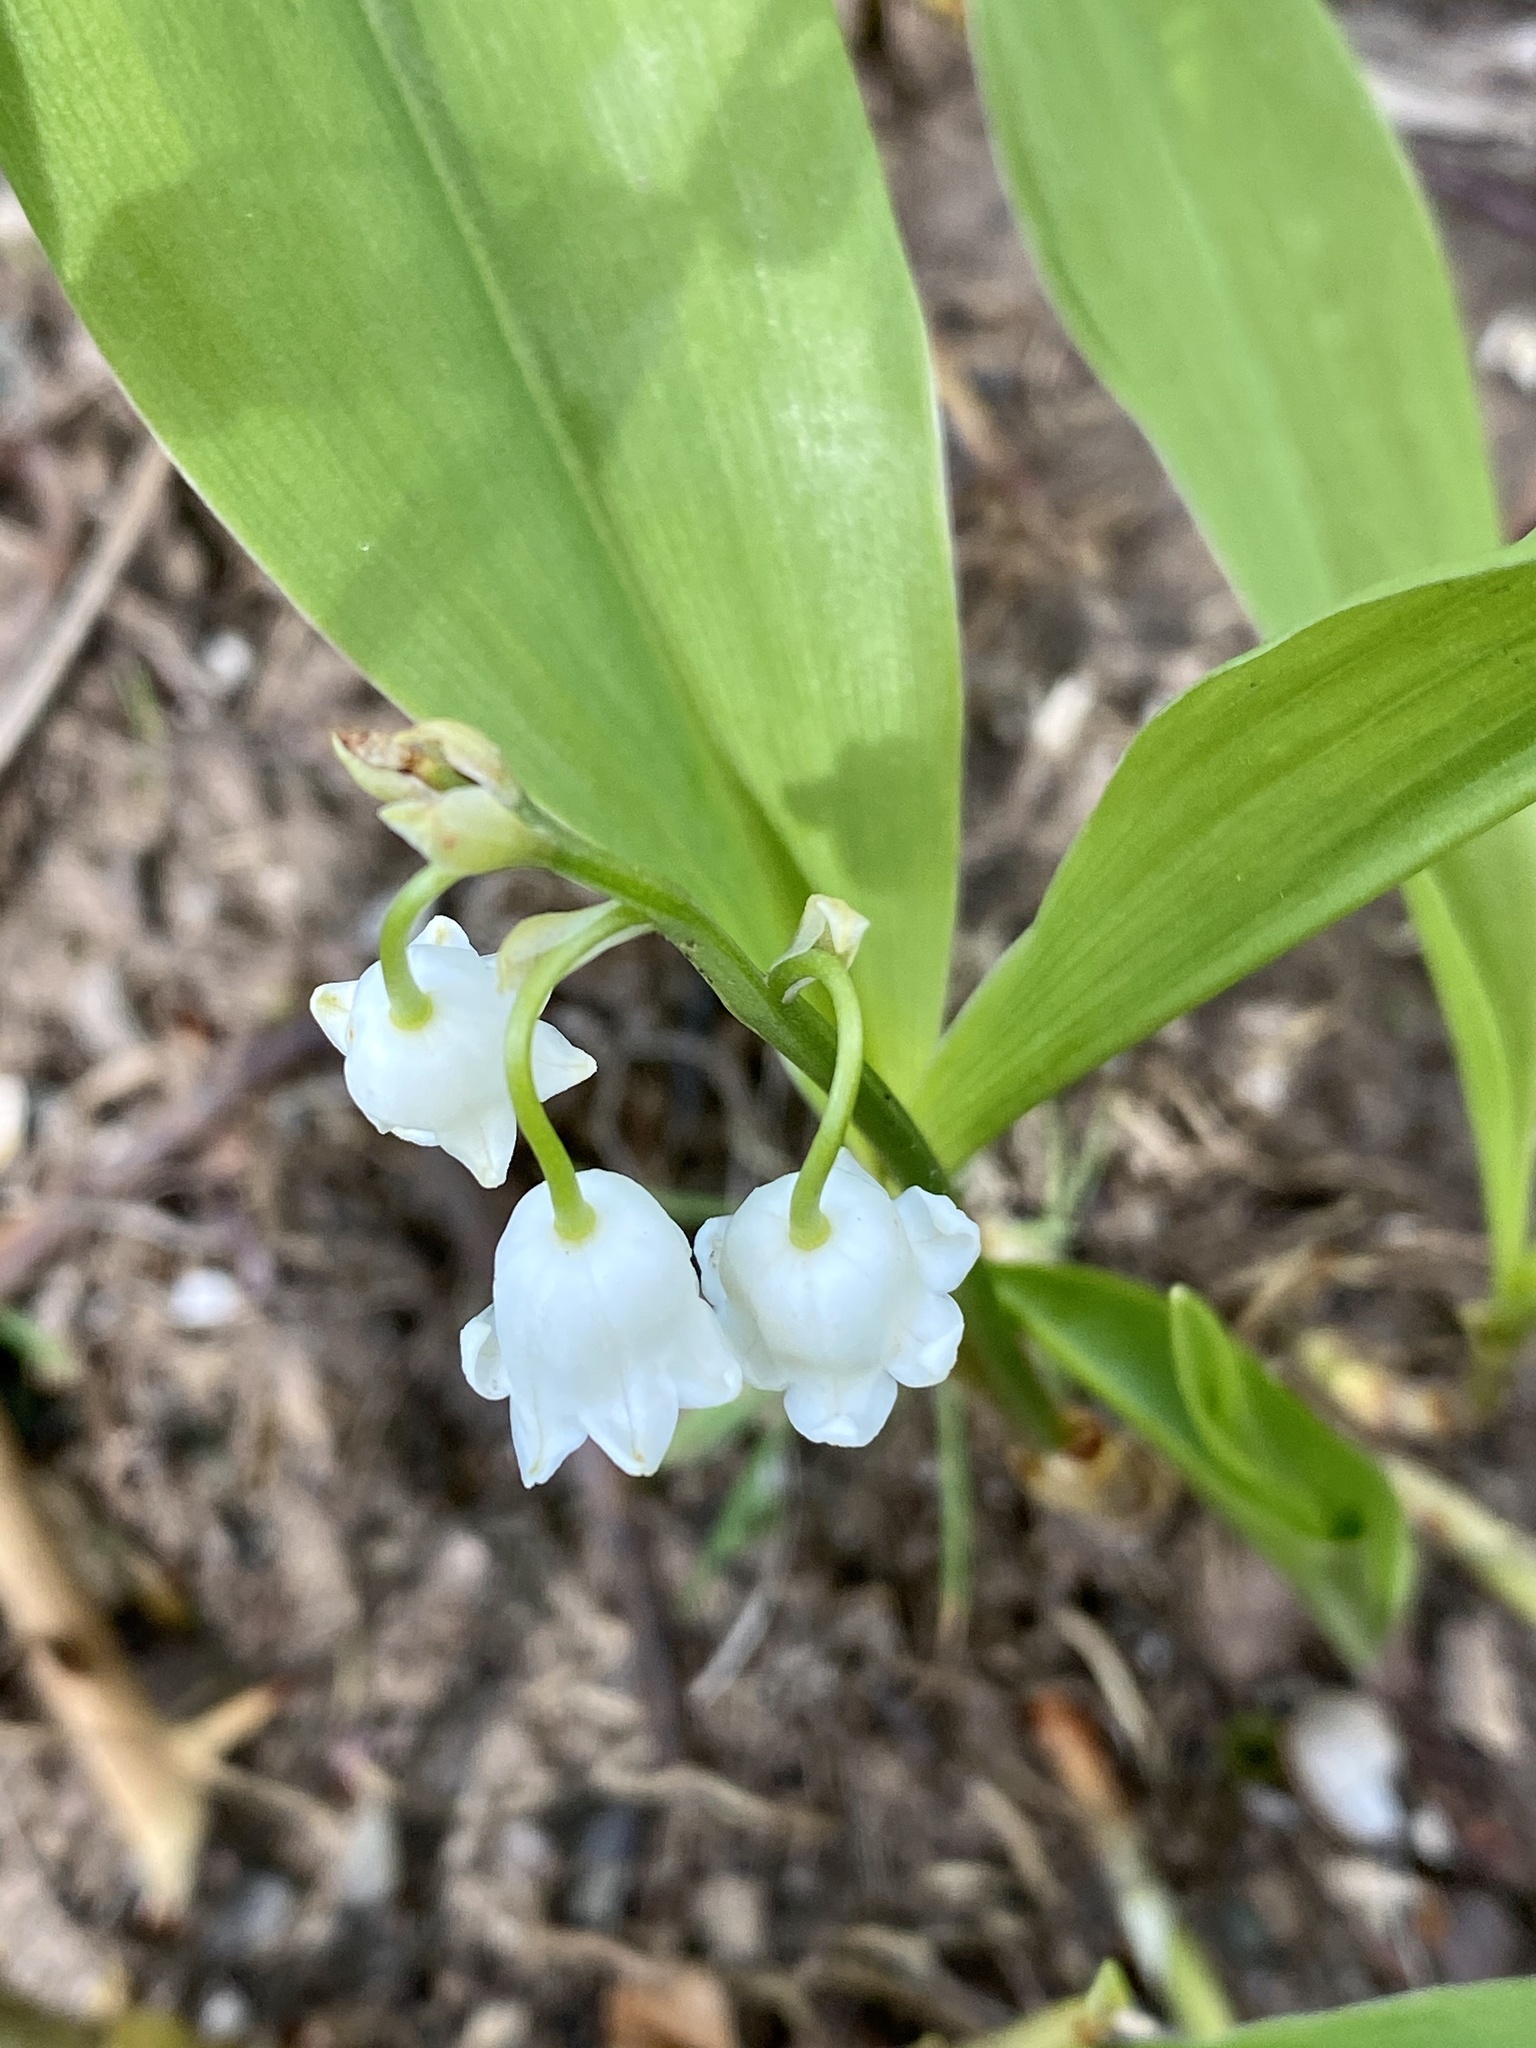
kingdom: Plantae
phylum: Tracheophyta
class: Liliopsida
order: Asparagales
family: Asparagaceae
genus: Convallaria
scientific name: Convallaria majalis
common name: Lily-of-the-valley
